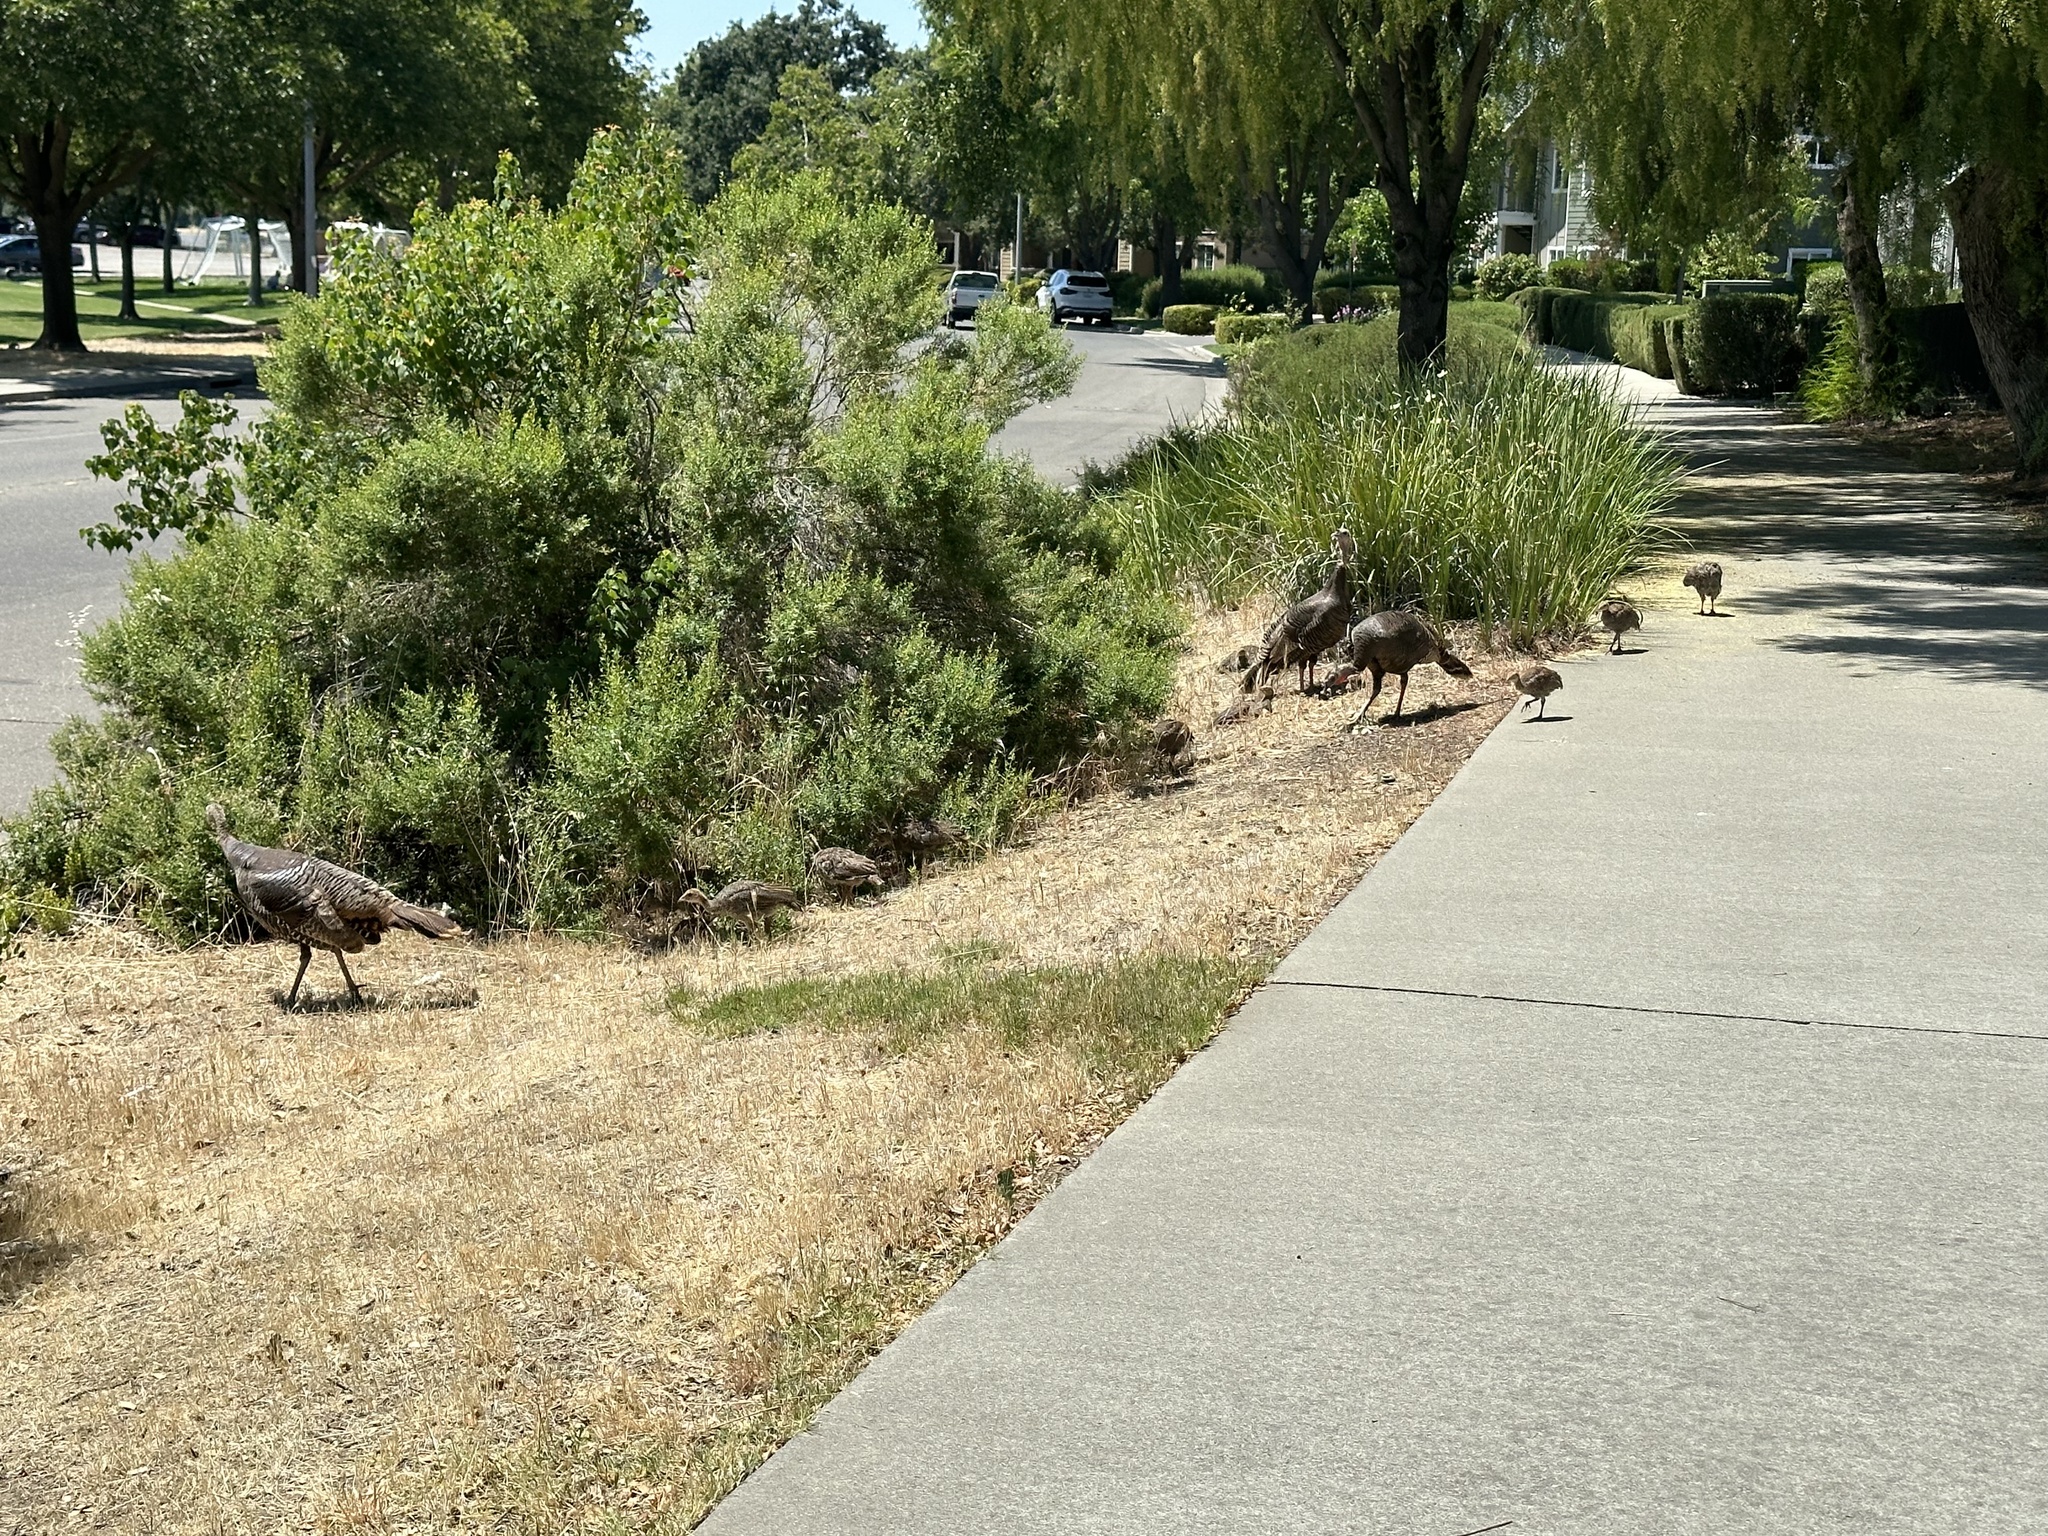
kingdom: Animalia
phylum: Chordata
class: Aves
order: Galliformes
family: Phasianidae
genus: Meleagris
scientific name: Meleagris gallopavo
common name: Wild turkey
